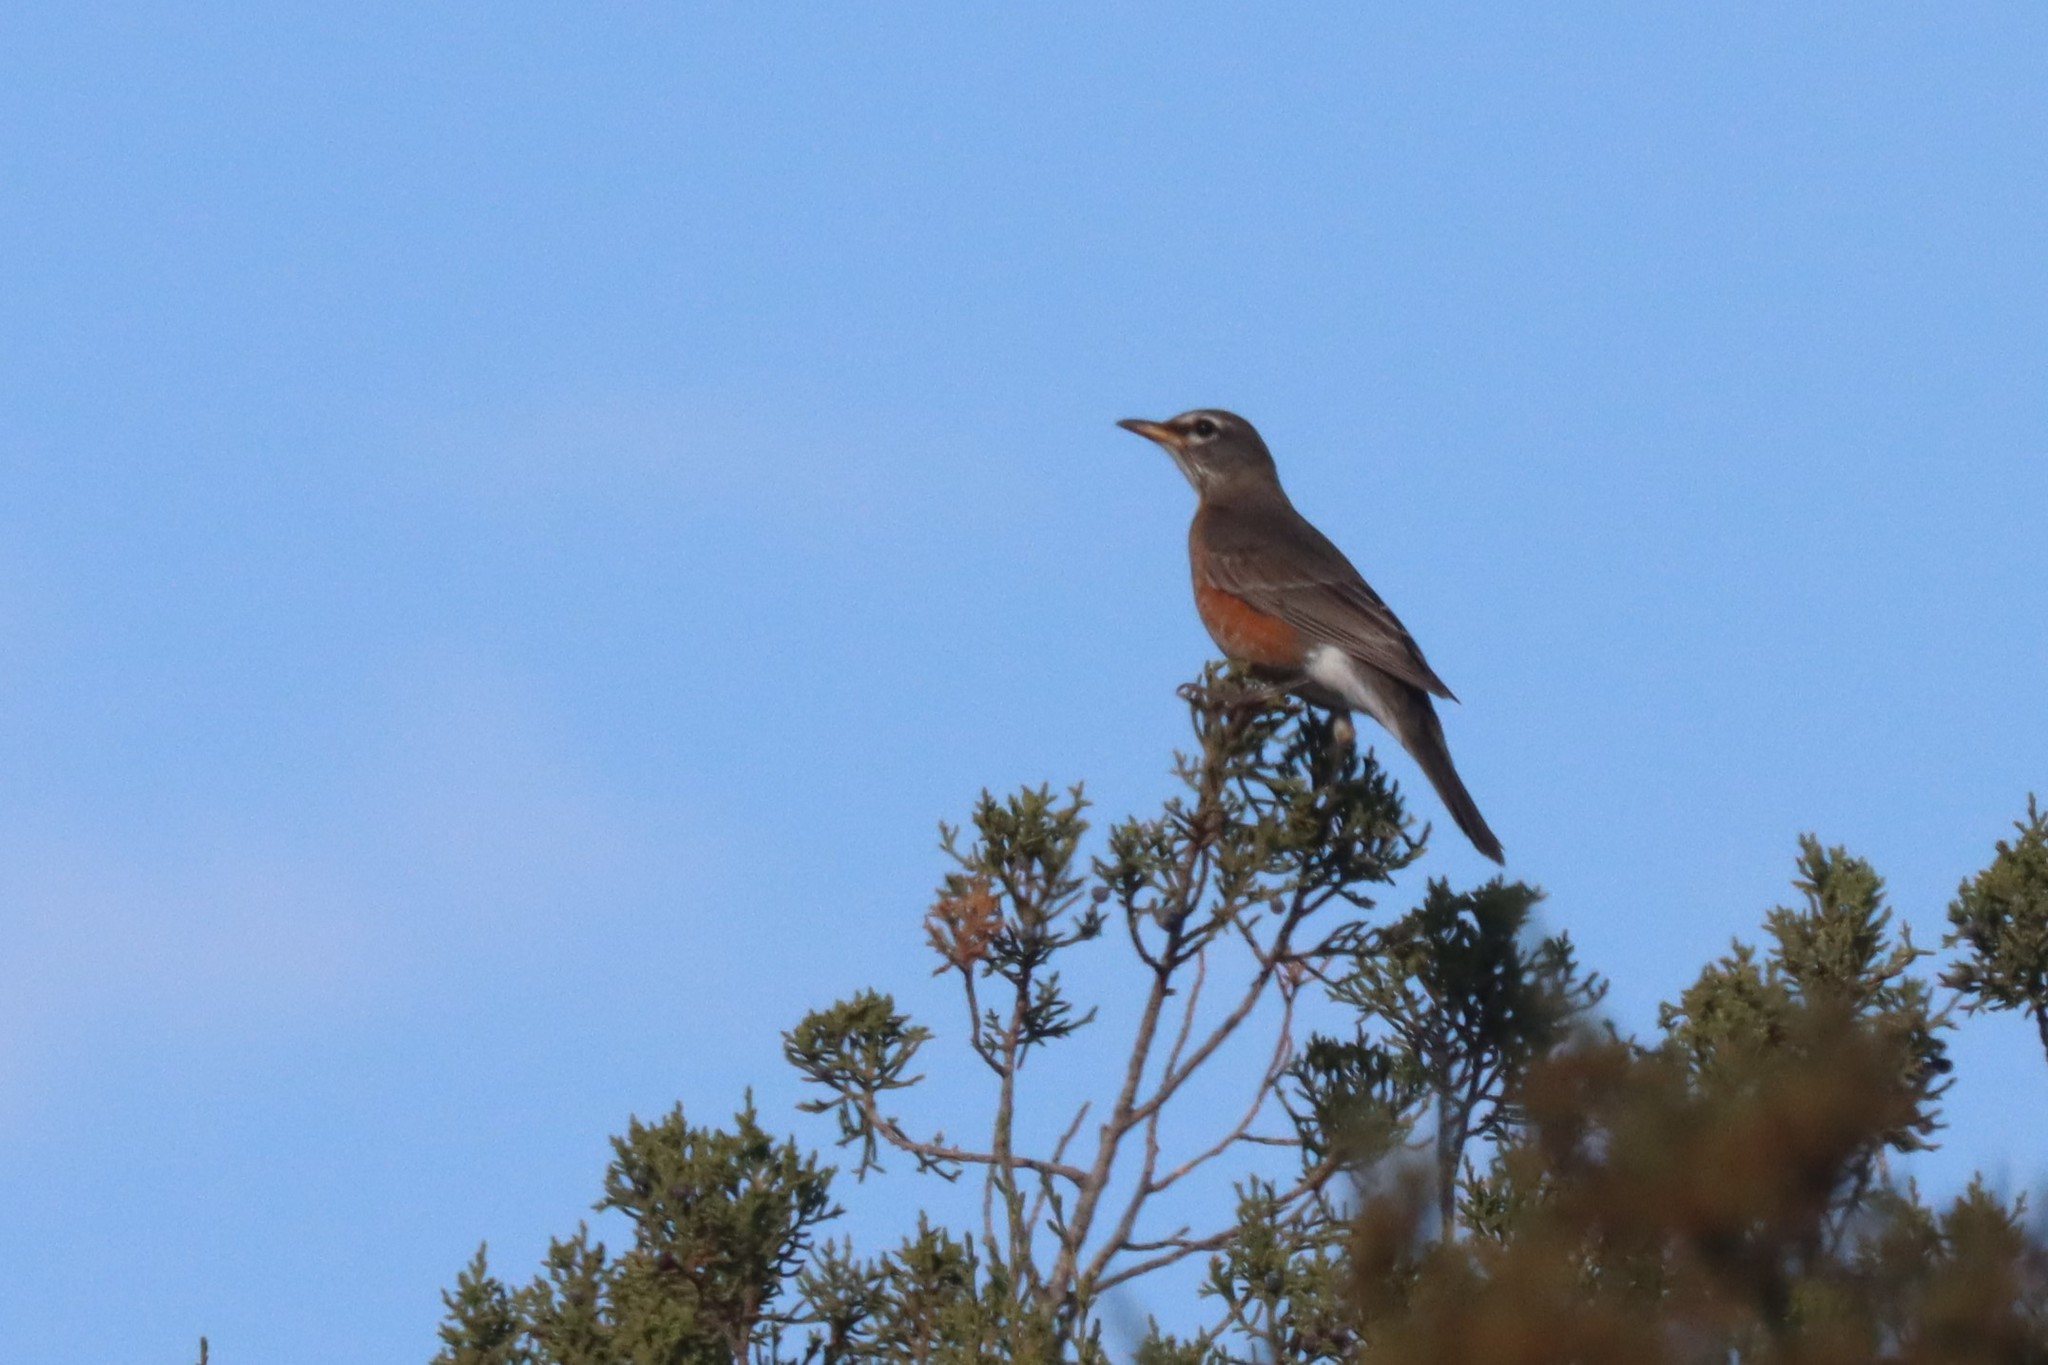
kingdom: Animalia
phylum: Chordata
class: Aves
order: Passeriformes
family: Turdidae
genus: Turdus
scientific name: Turdus migratorius
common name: American robin
